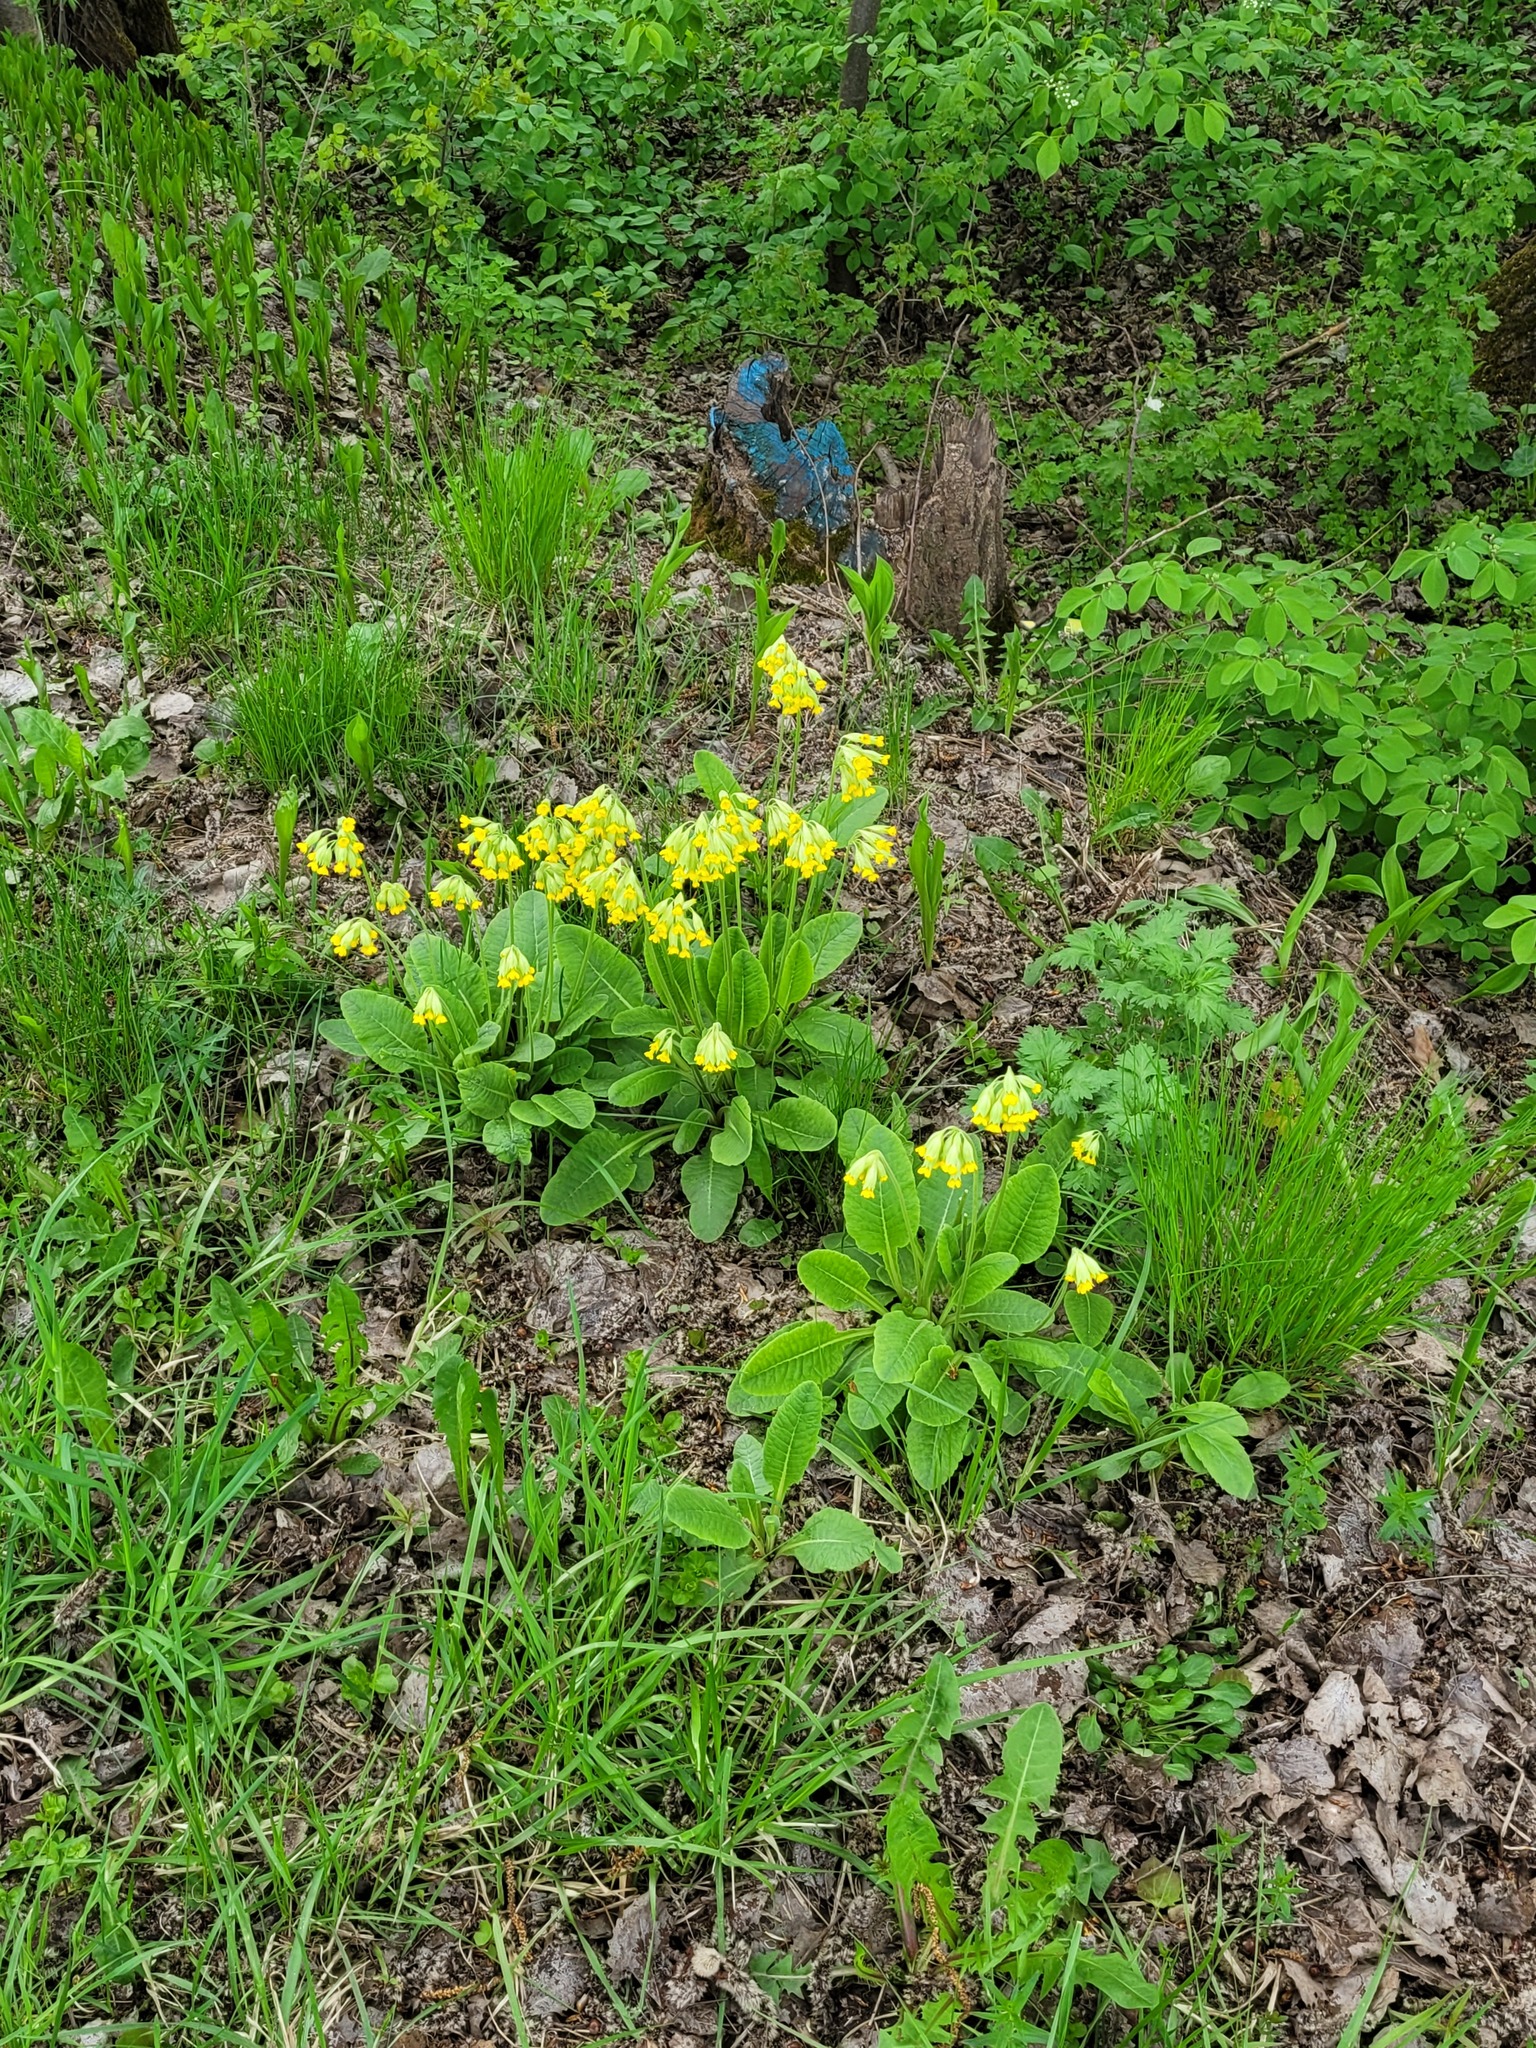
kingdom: Plantae
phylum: Tracheophyta
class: Magnoliopsida
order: Ericales
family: Primulaceae
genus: Primula
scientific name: Primula veris
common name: Cowslip
